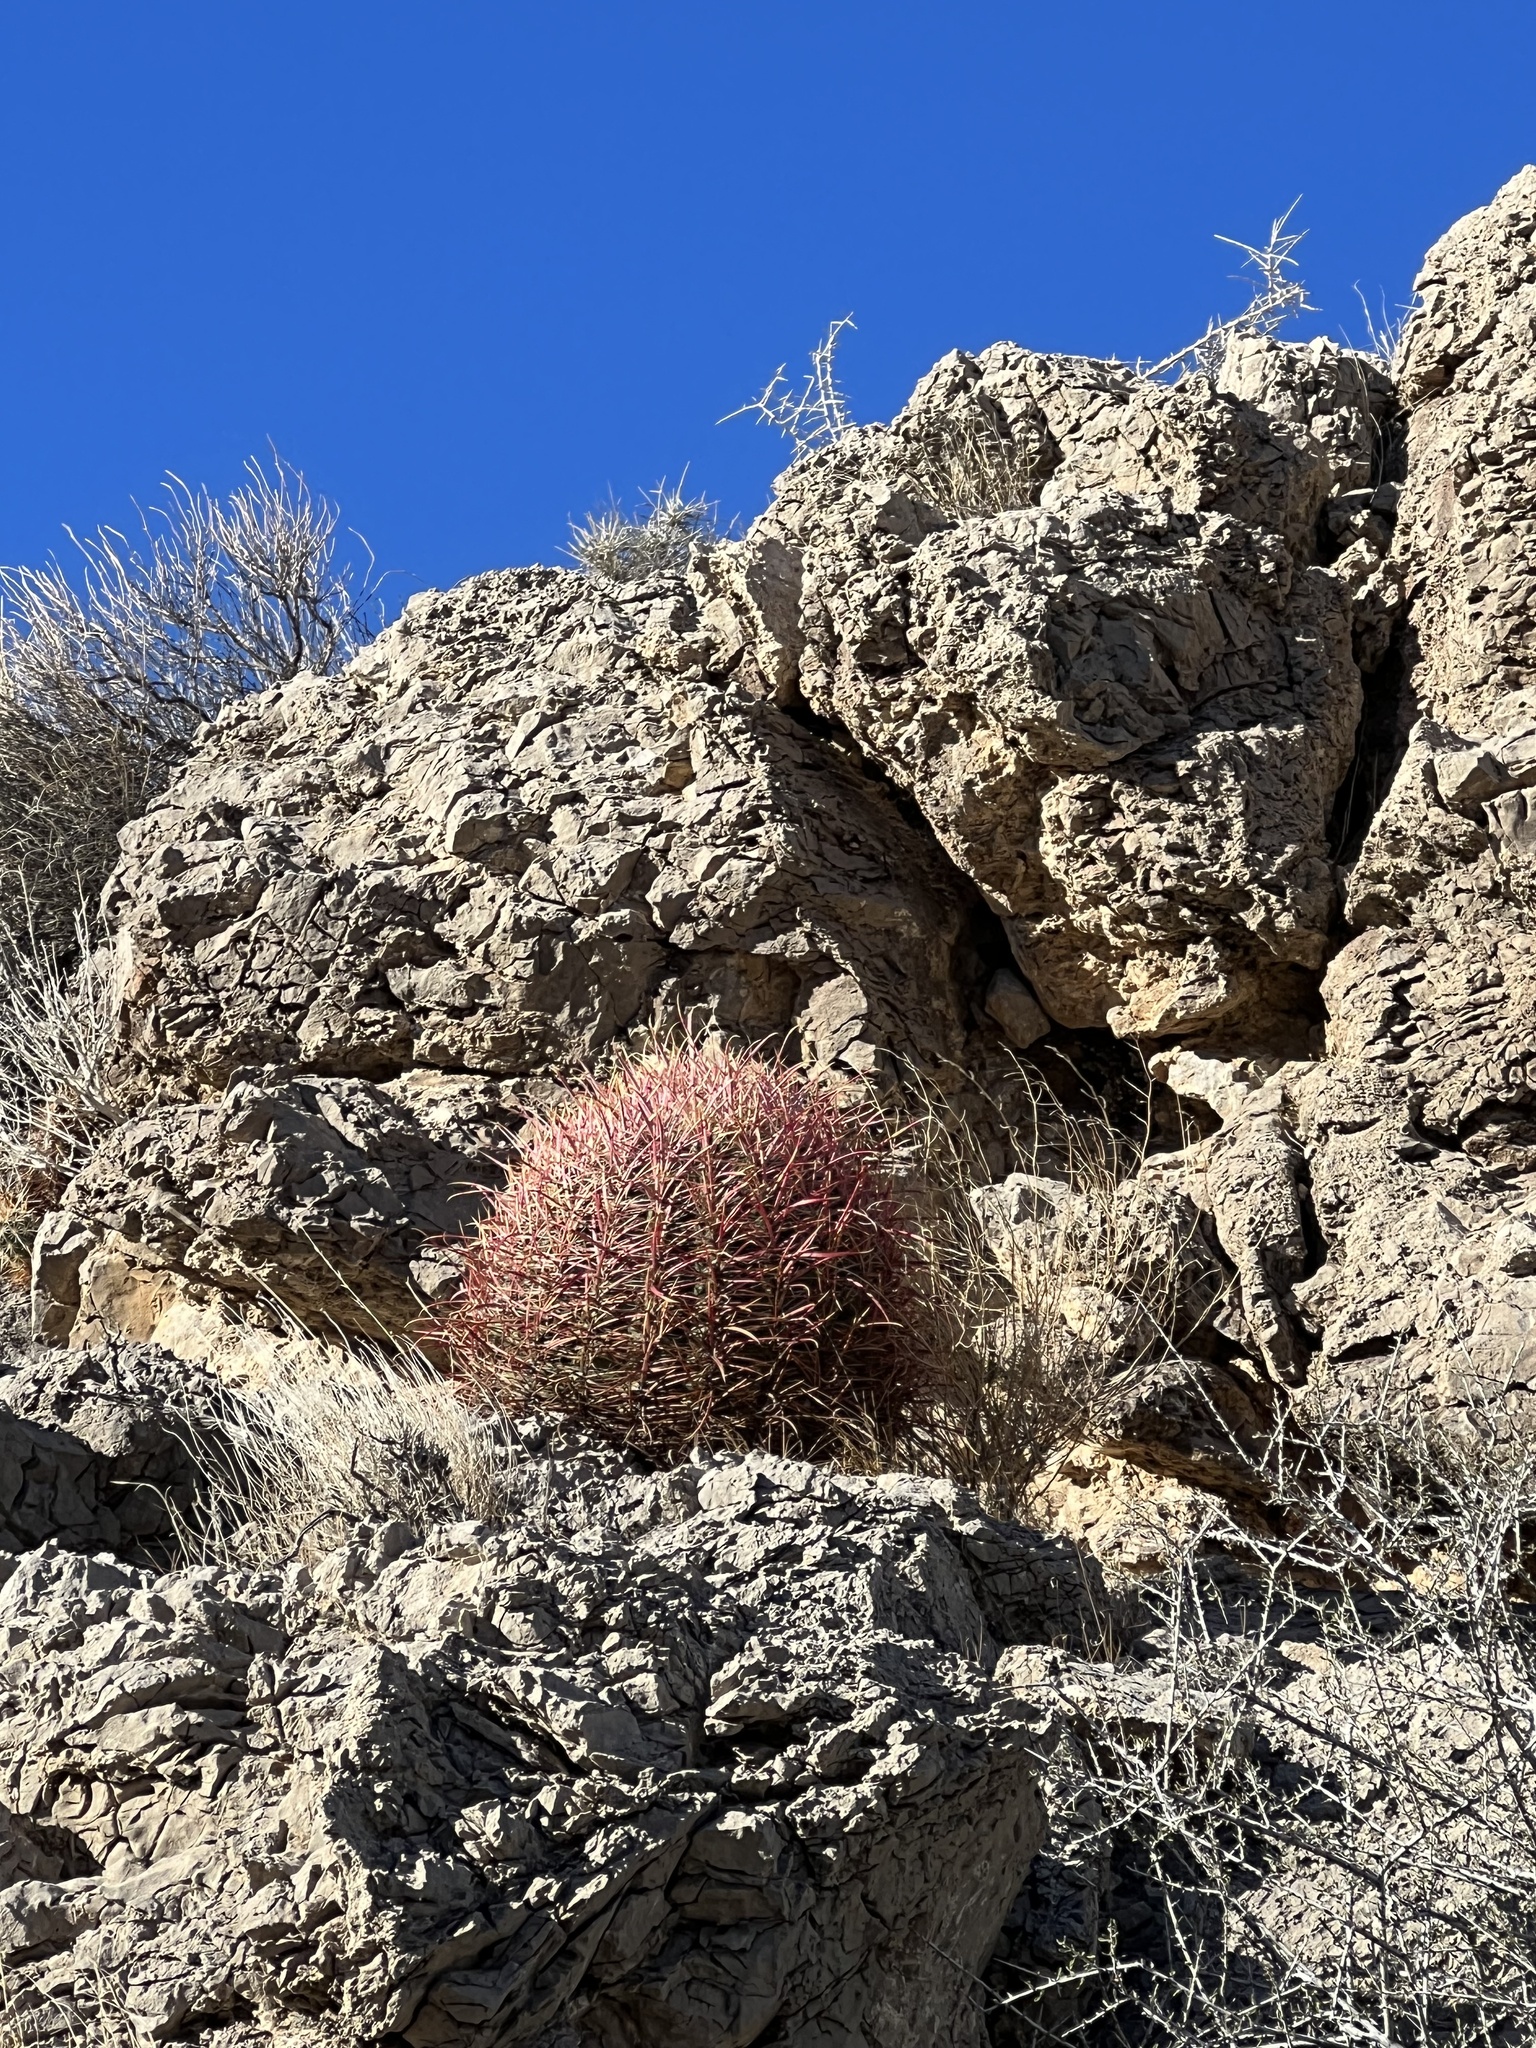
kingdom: Plantae
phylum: Tracheophyta
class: Magnoliopsida
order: Caryophyllales
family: Cactaceae
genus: Ferocactus
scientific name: Ferocactus cylindraceus
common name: California barrel cactus
